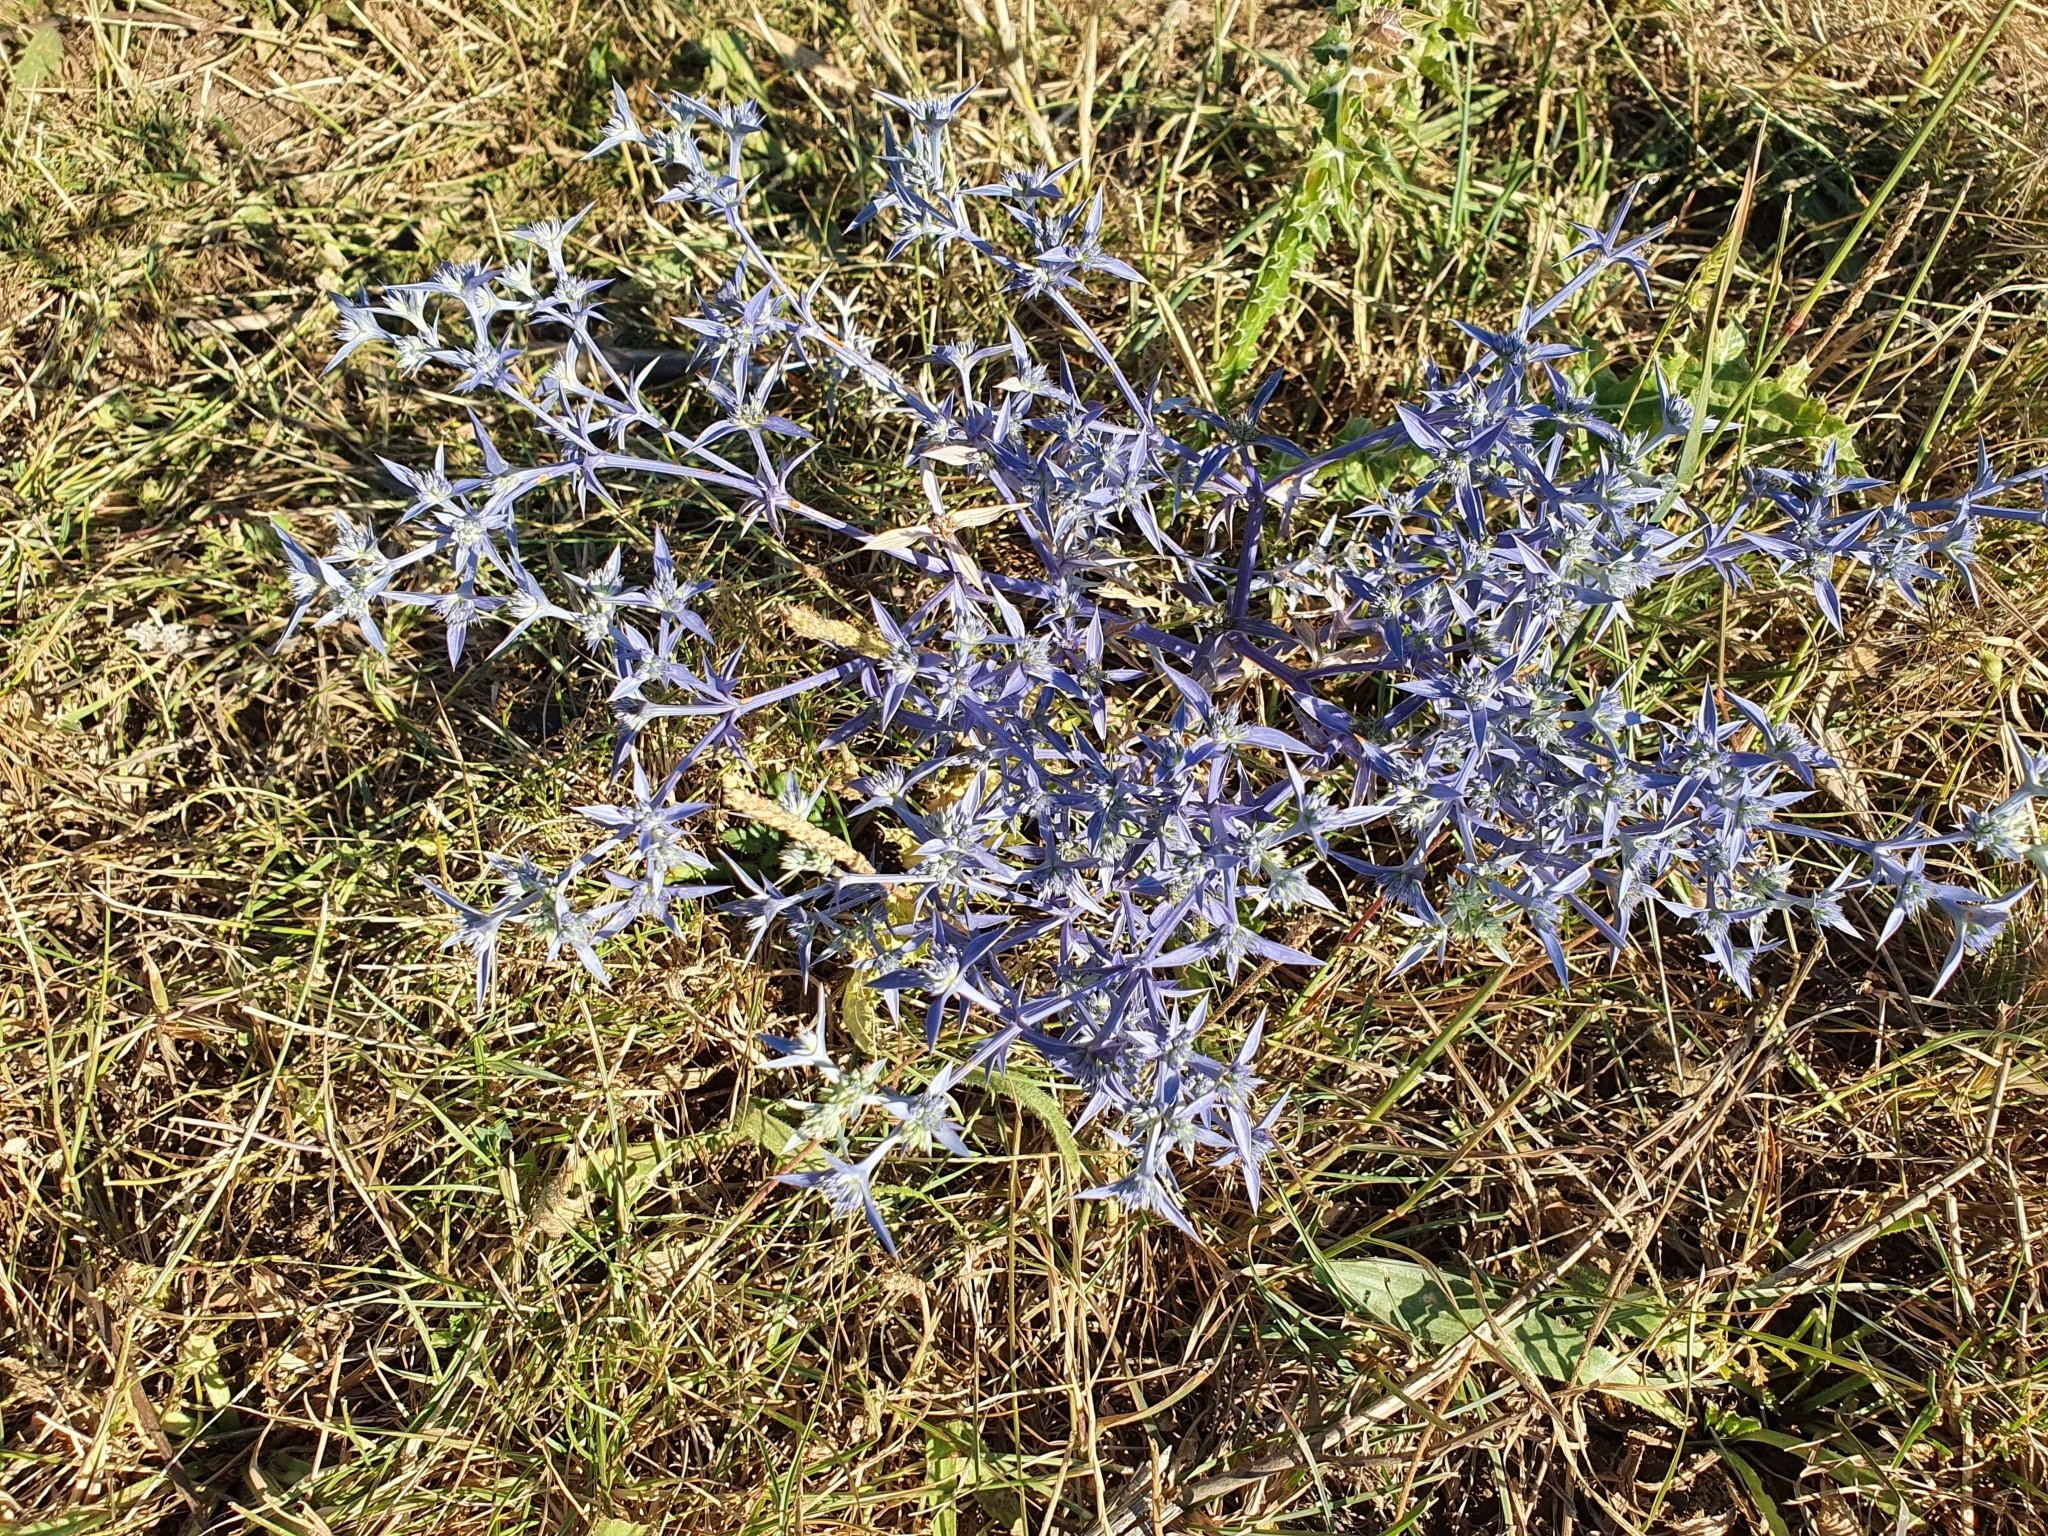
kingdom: Plantae
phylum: Tracheophyta
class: Magnoliopsida
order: Apiales
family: Apiaceae
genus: Eryngium
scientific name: Eryngium triquetrum
